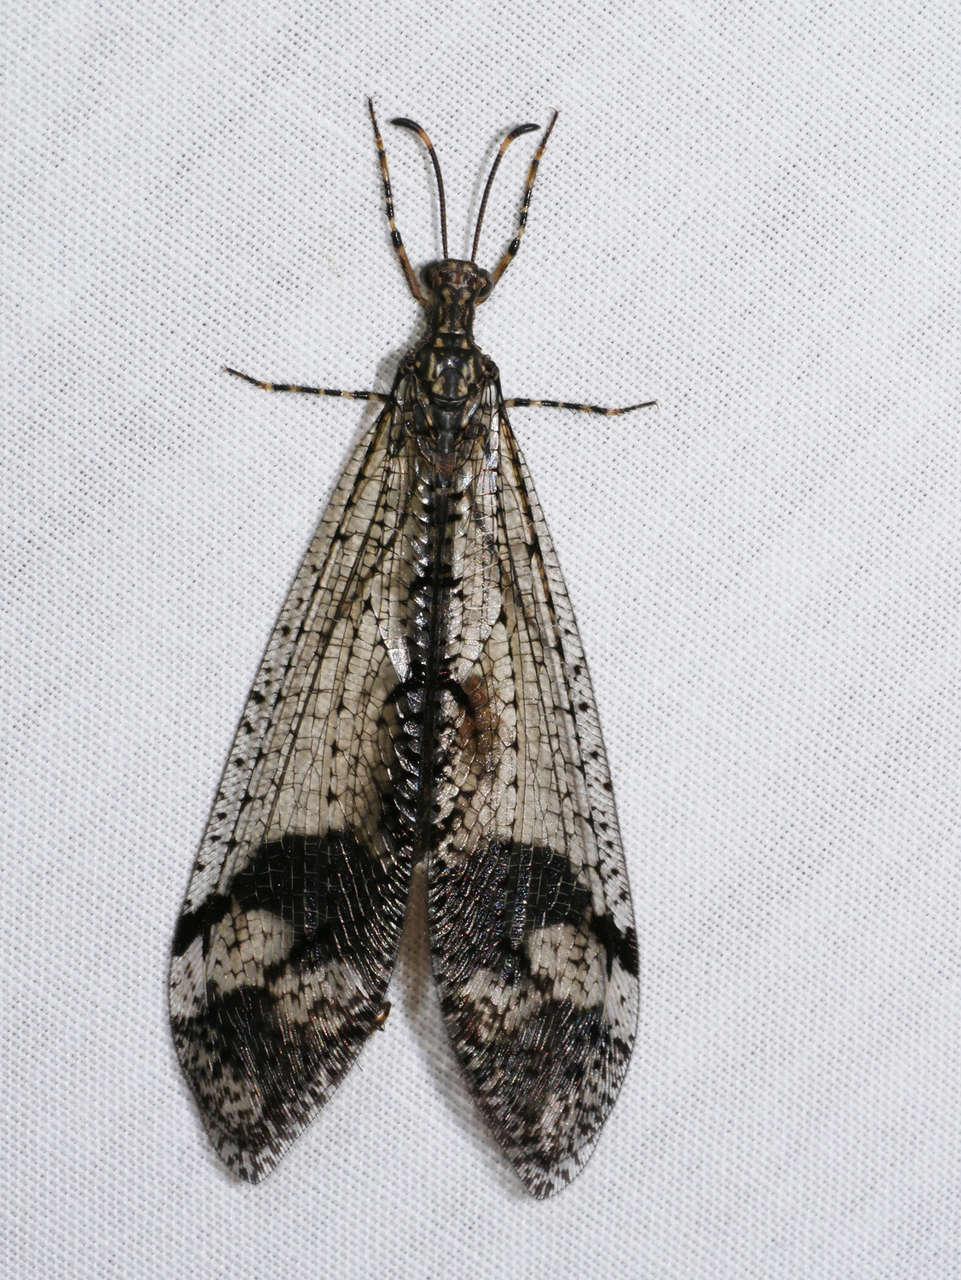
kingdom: Animalia
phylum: Arthropoda
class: Insecta
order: Neuroptera
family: Myrmeleontidae
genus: Glenoleon
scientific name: Glenoleon pulchellus
